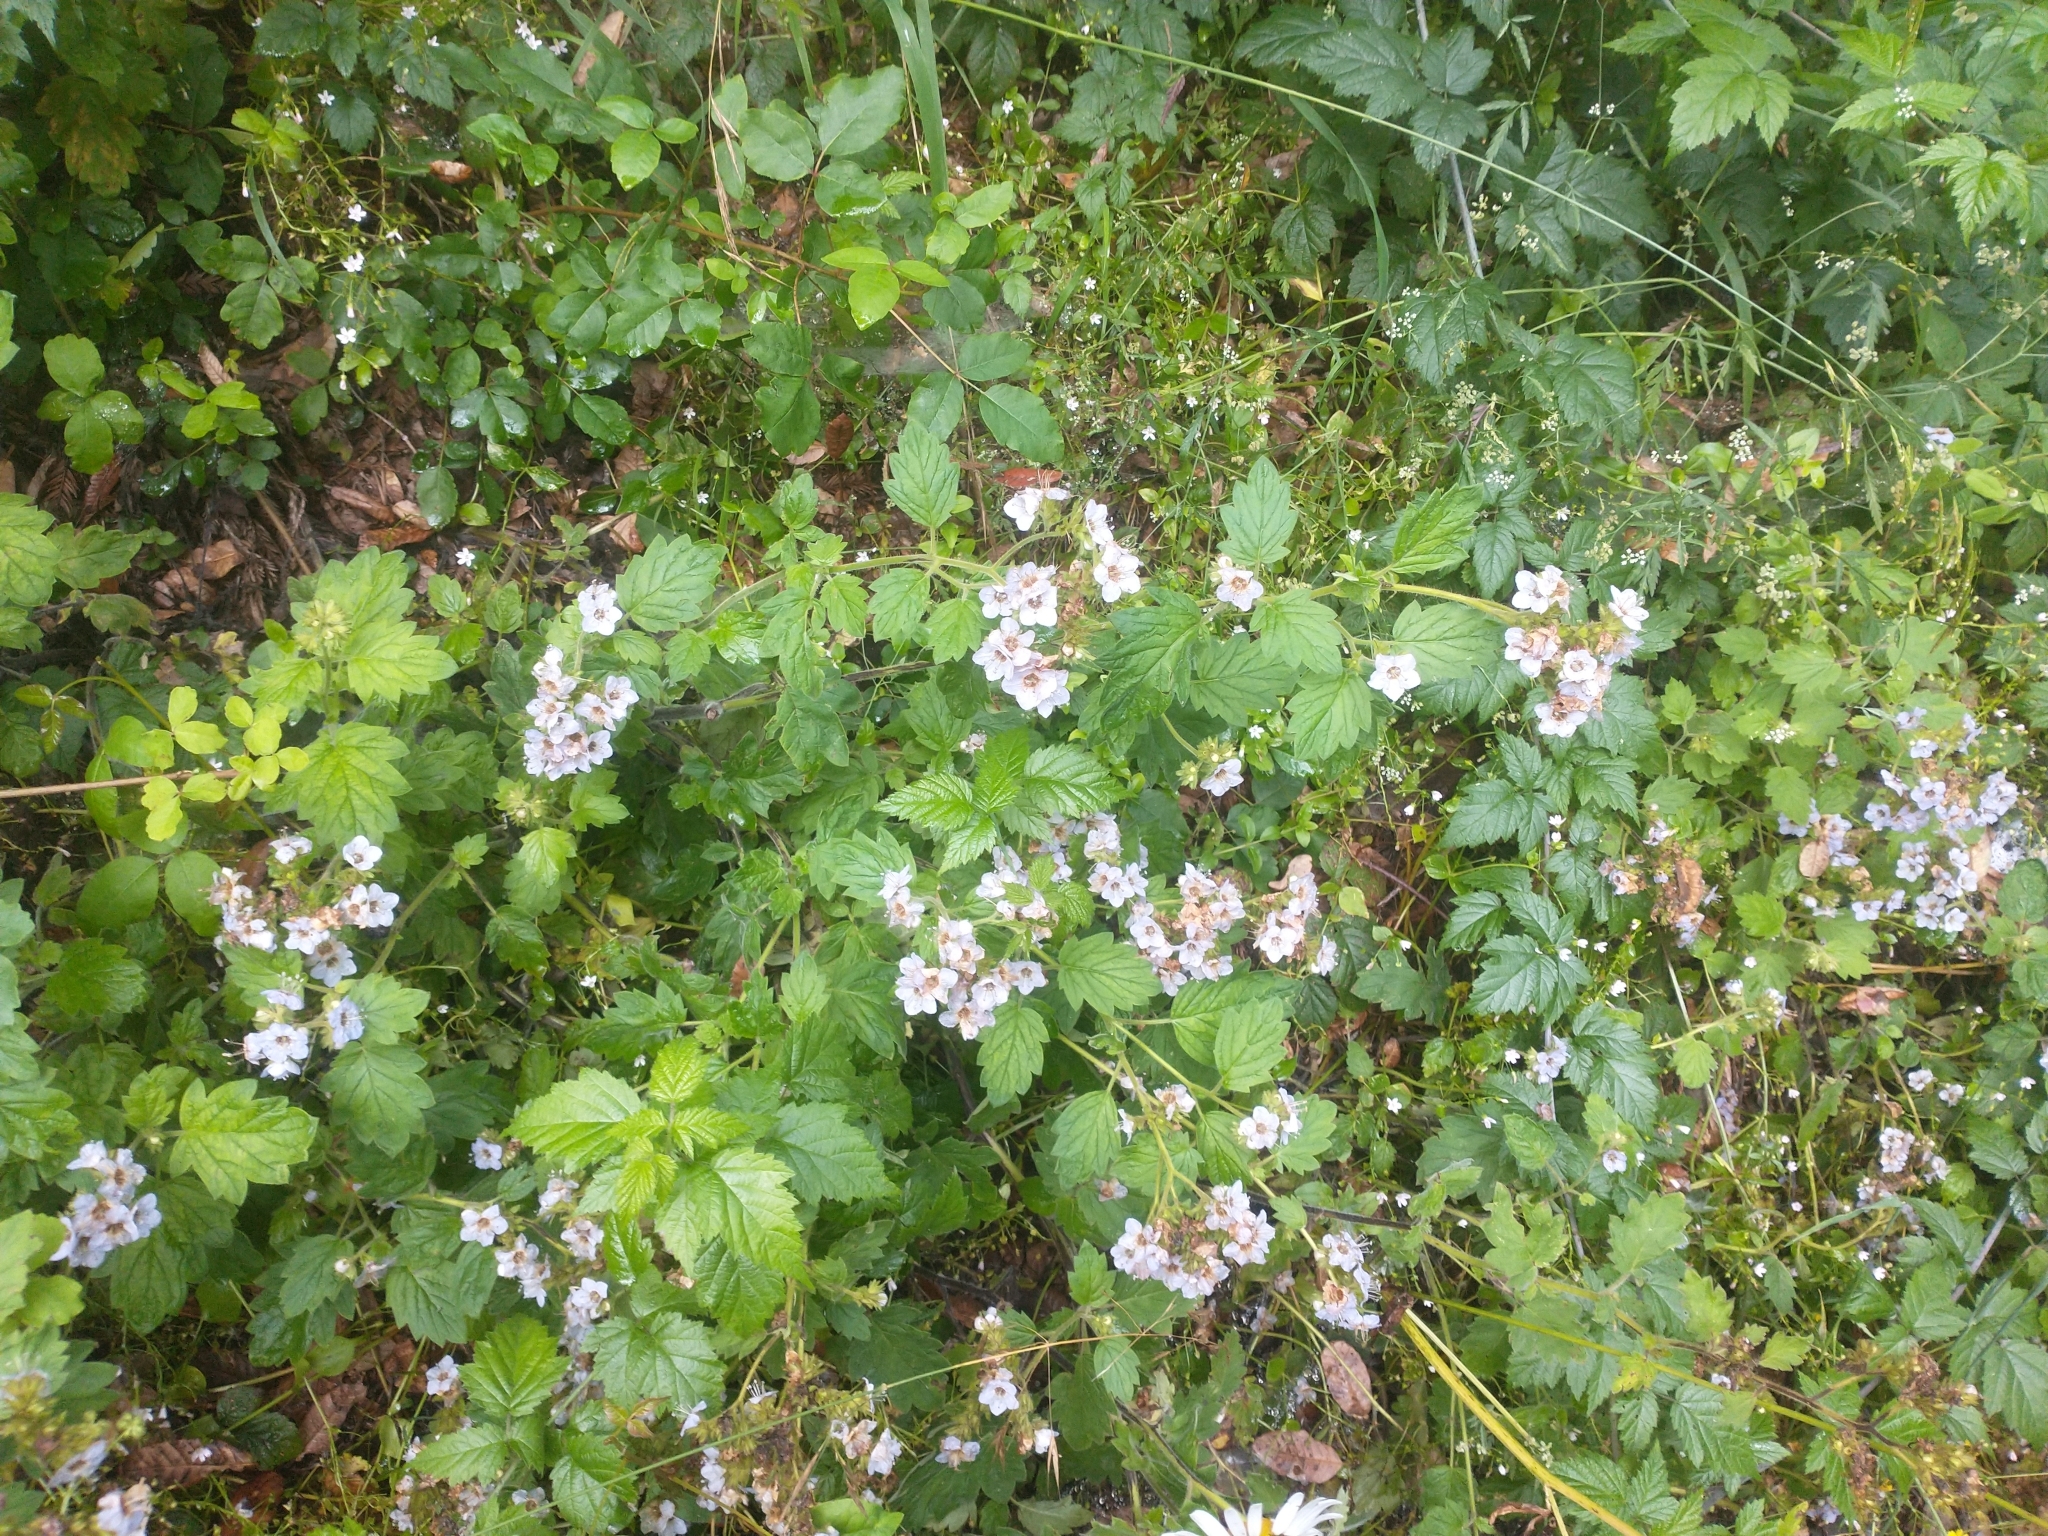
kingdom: Plantae
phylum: Tracheophyta
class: Magnoliopsida
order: Boraginales
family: Hydrophyllaceae
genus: Phacelia
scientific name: Phacelia bolanderi
